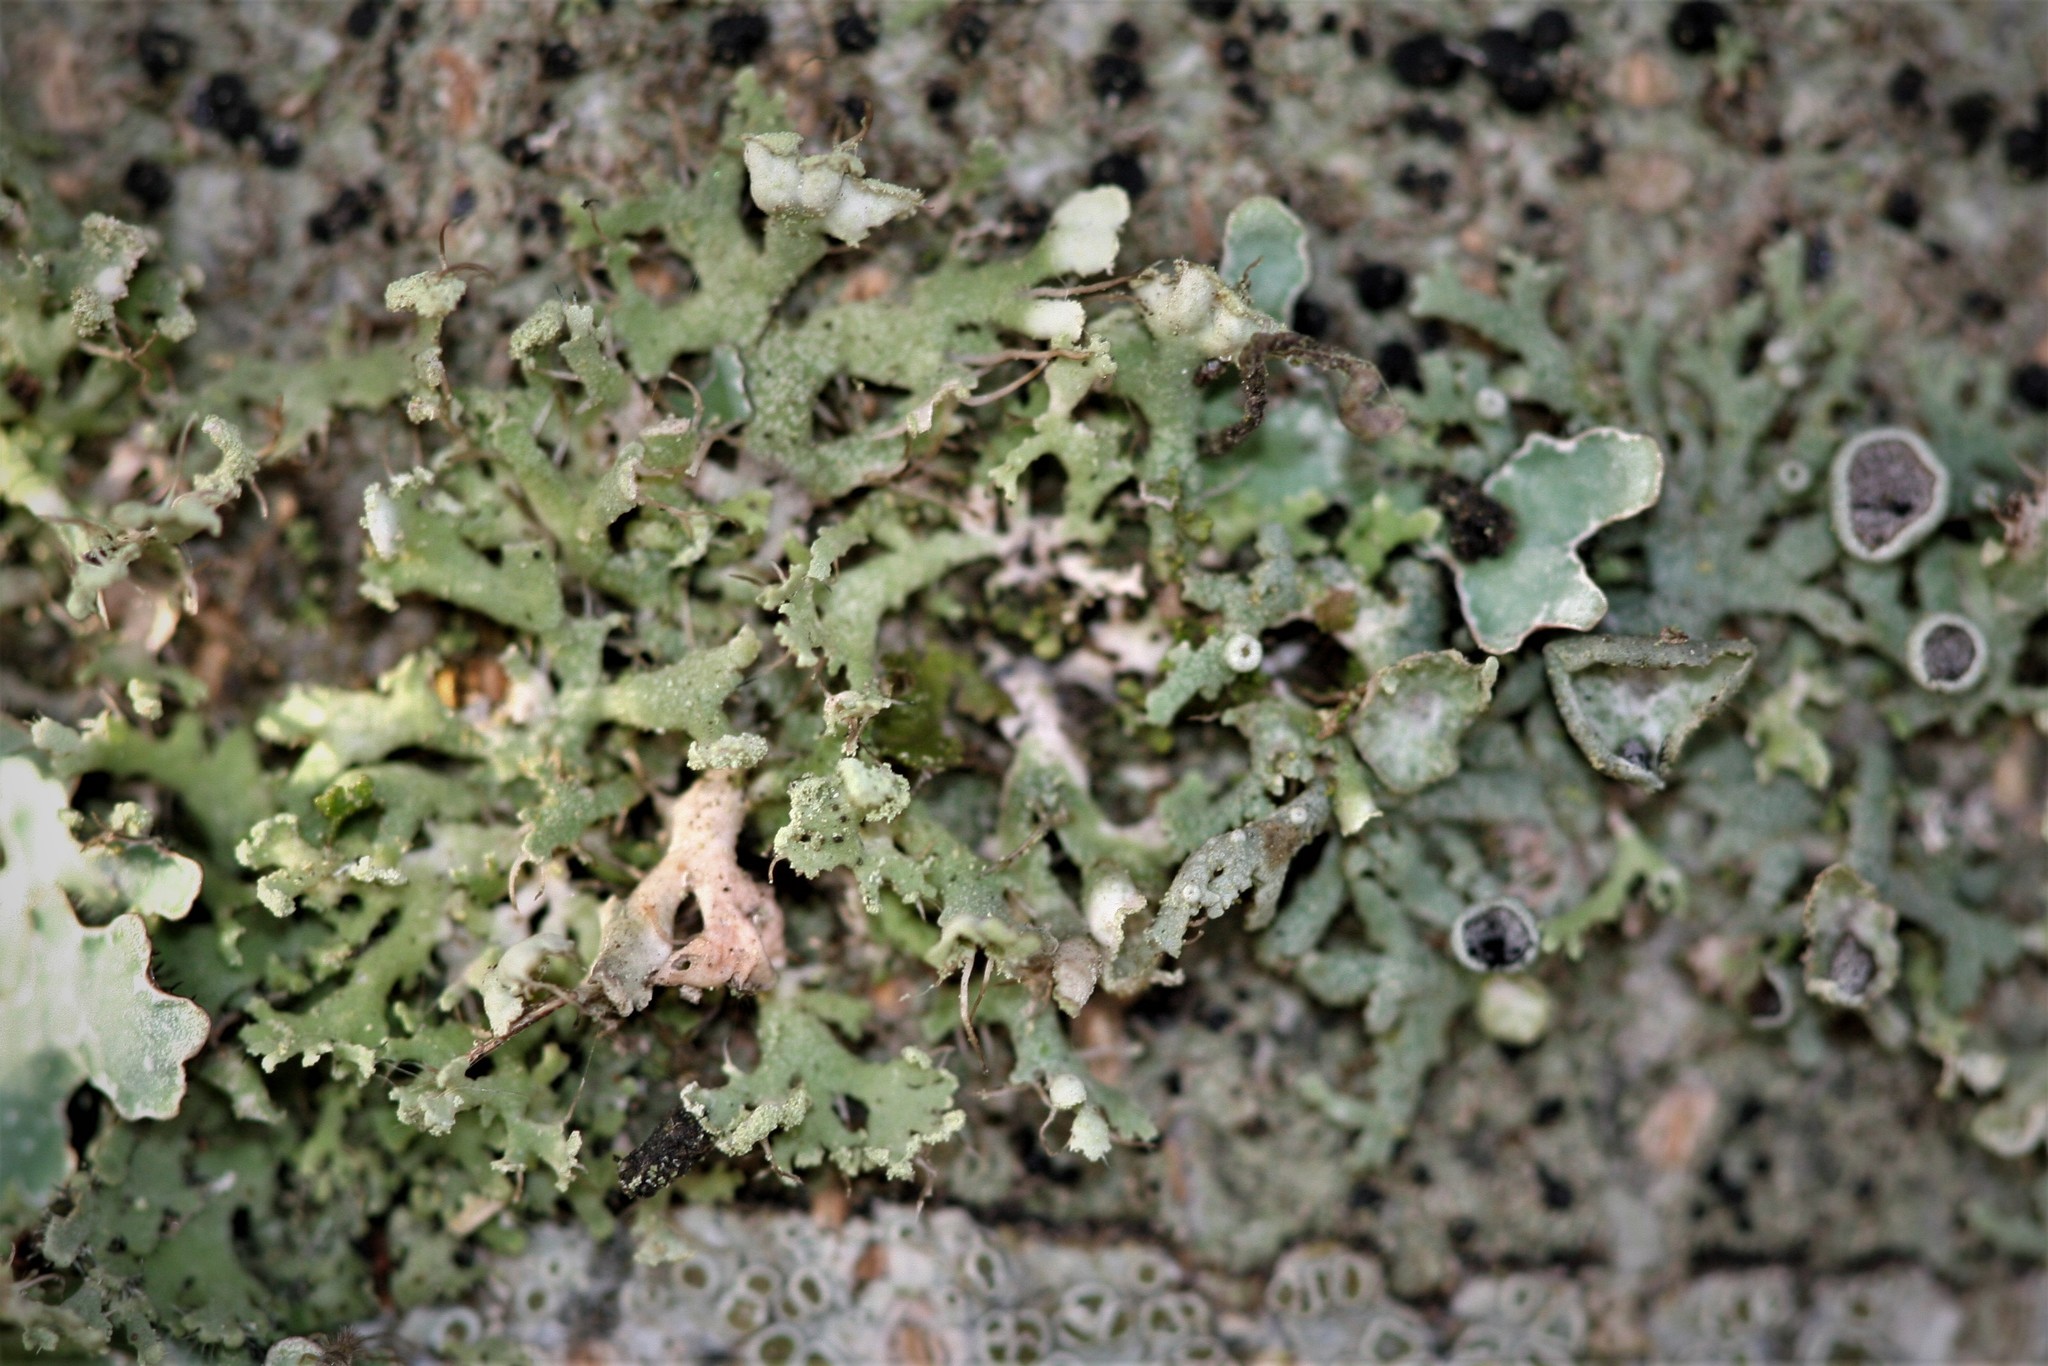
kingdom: Fungi
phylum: Ascomycota
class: Lecanoromycetes
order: Caliciales
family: Physciaceae
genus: Physcia
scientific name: Physcia tenella
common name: Fringed rosette lichen
